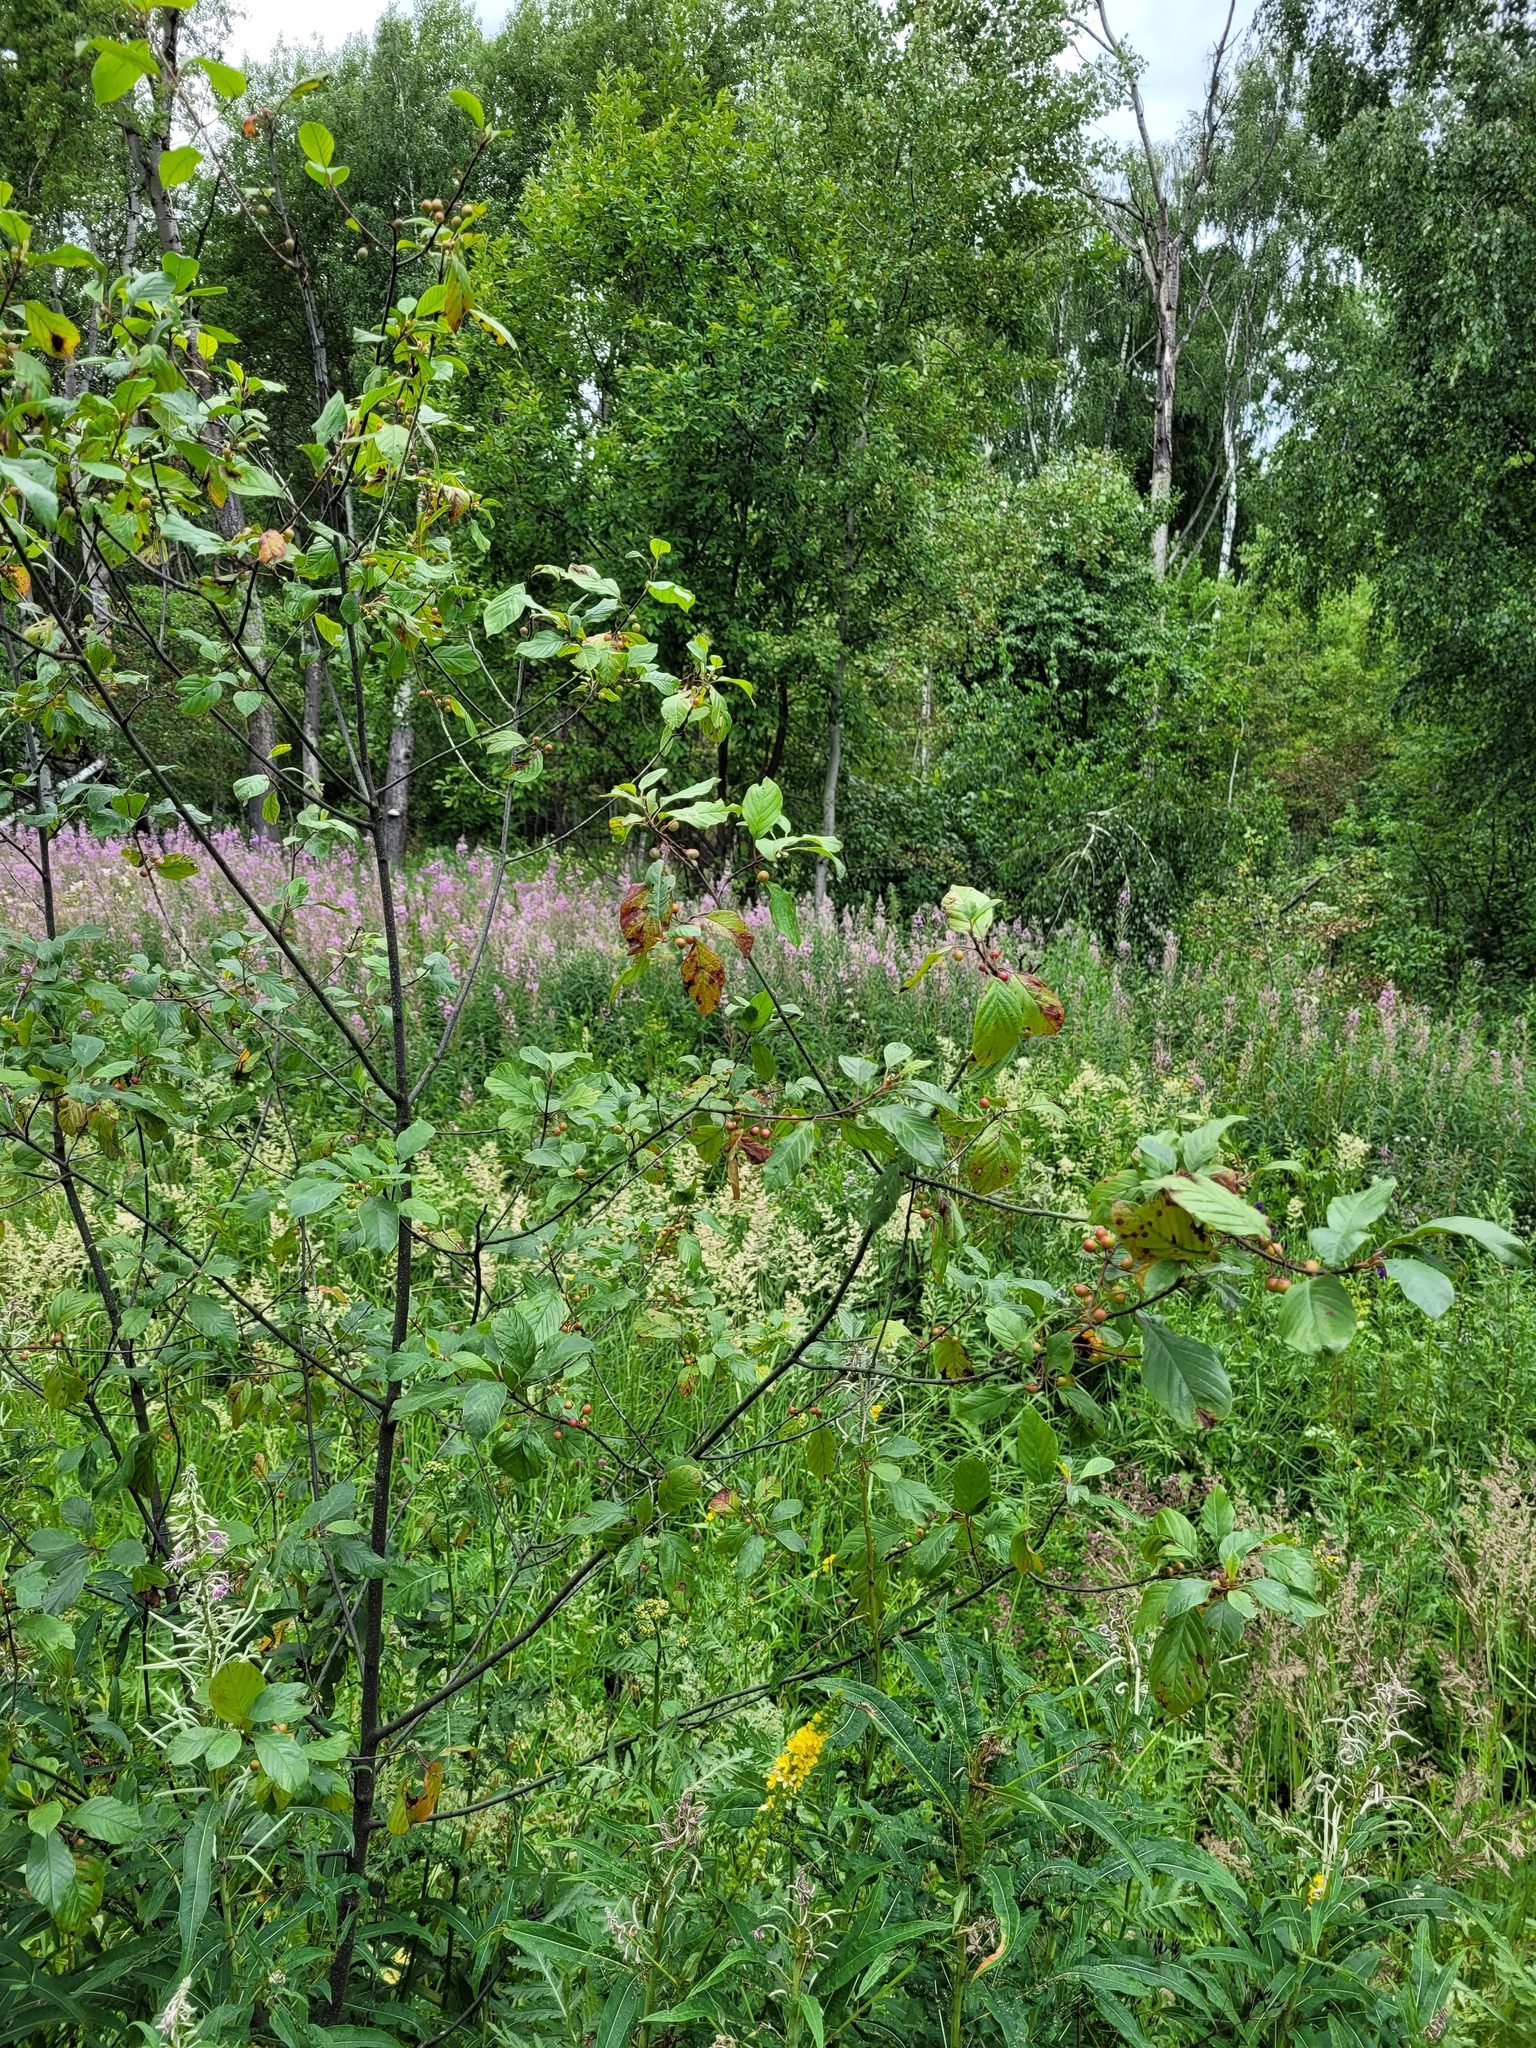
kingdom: Plantae
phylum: Tracheophyta
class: Magnoliopsida
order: Rosales
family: Rhamnaceae
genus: Frangula
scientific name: Frangula alnus
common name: Alder buckthorn
